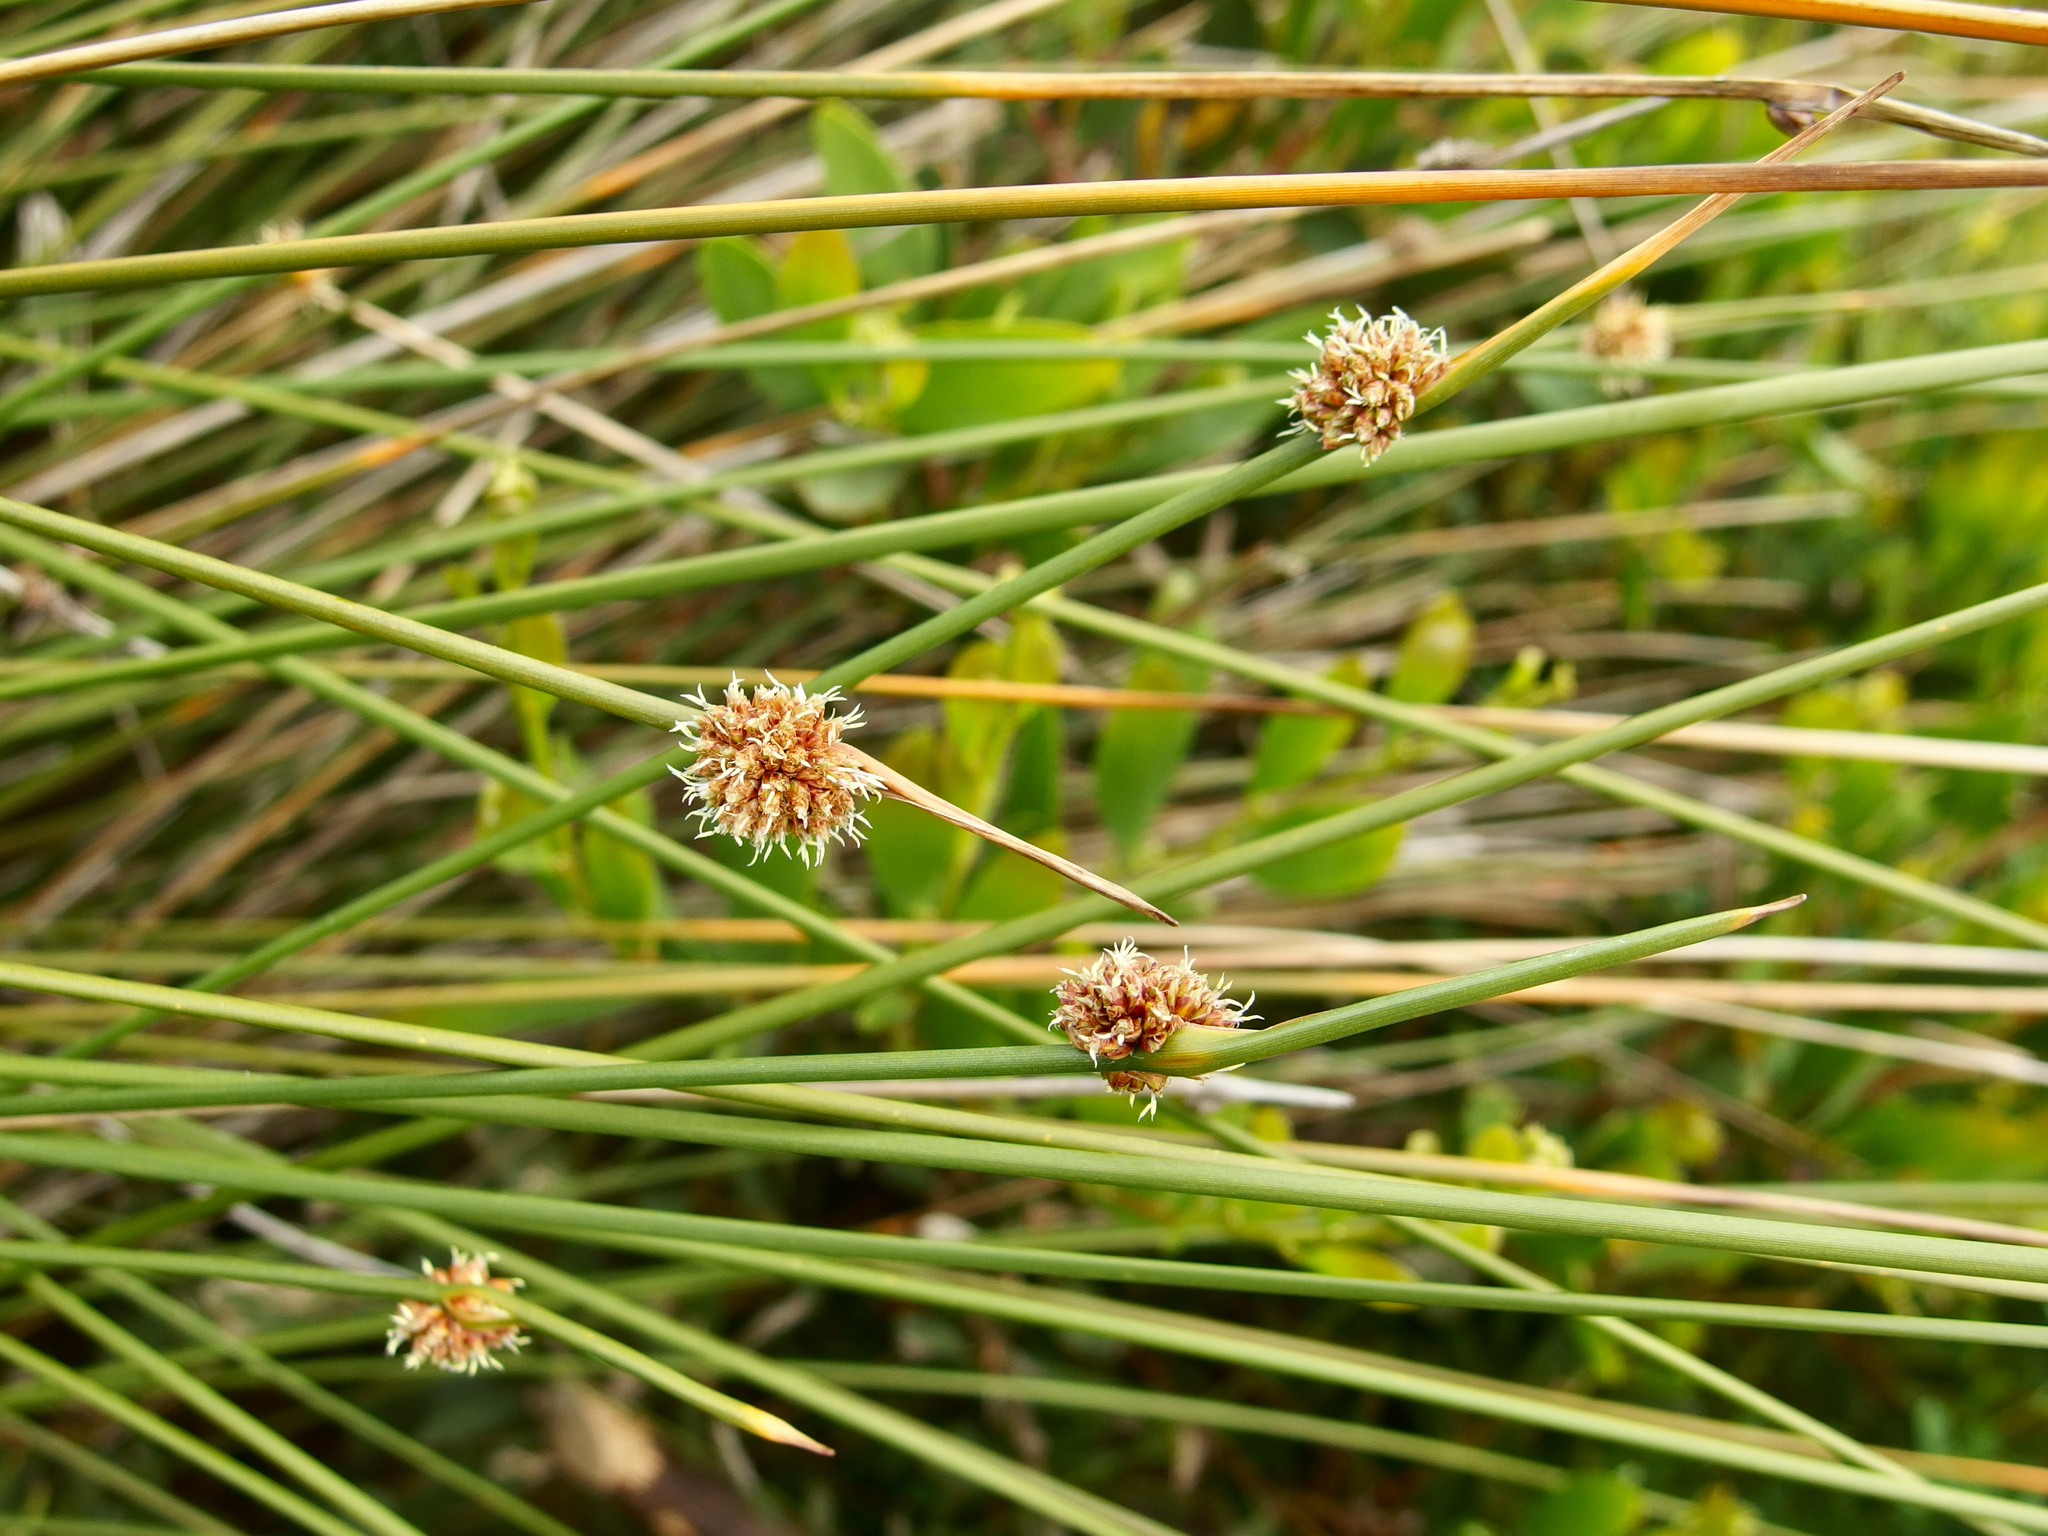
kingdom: Plantae
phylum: Tracheophyta
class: Liliopsida
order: Poales
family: Cyperaceae
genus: Ficinia
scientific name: Ficinia nodosa
